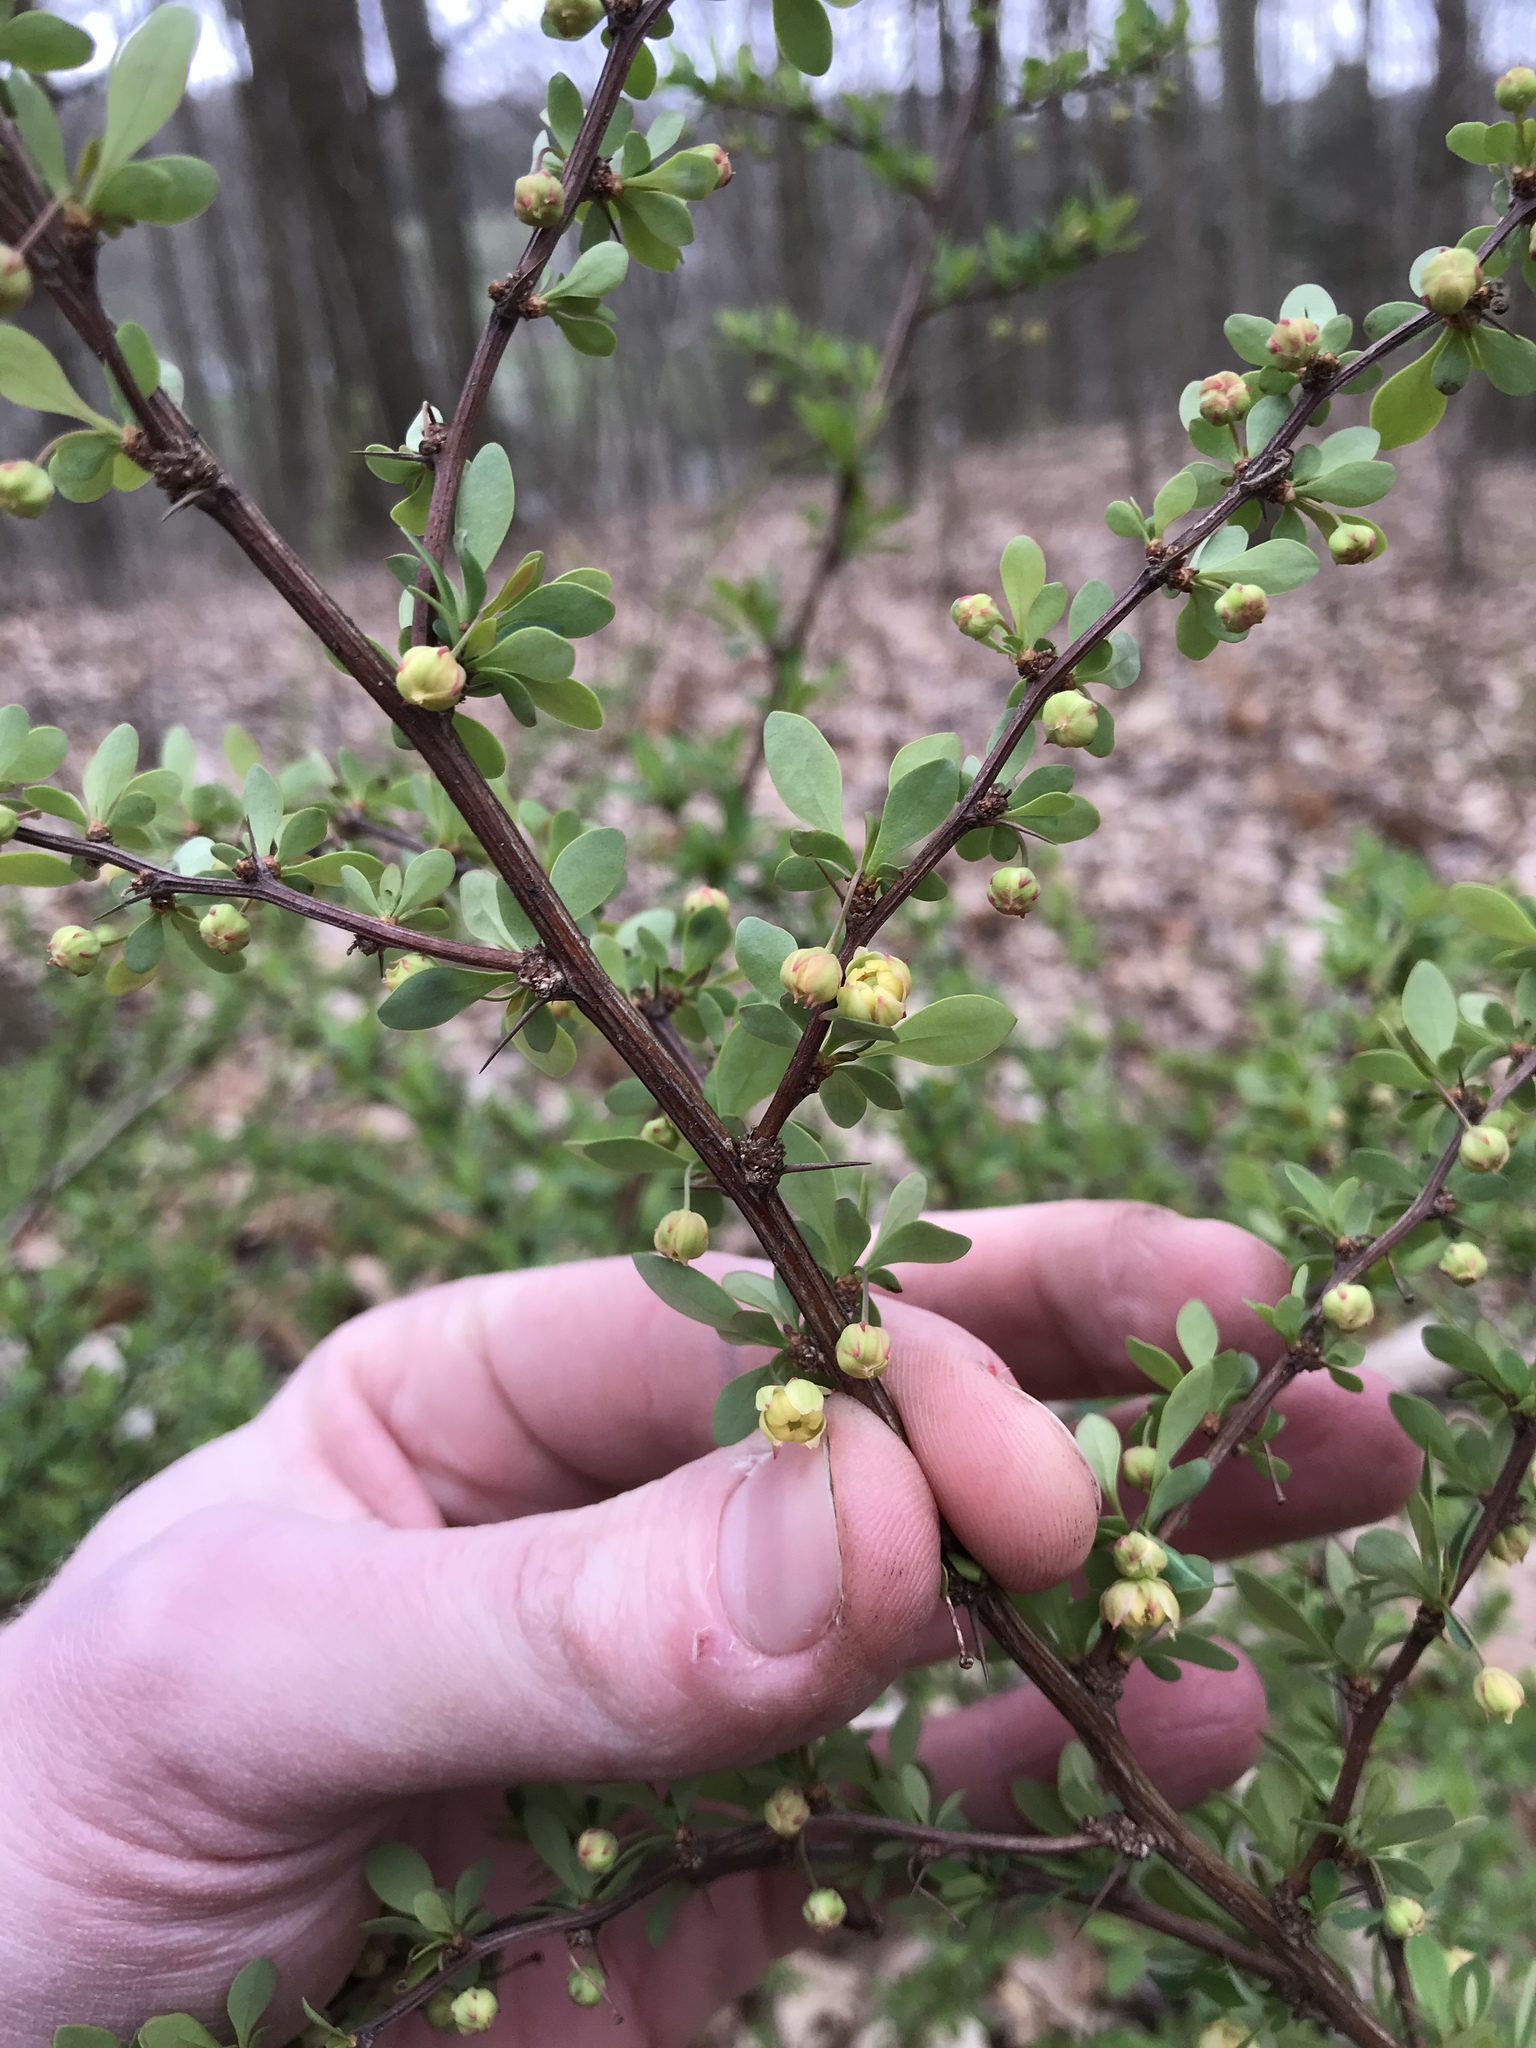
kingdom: Plantae
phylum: Tracheophyta
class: Magnoliopsida
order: Ranunculales
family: Berberidaceae
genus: Berberis
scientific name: Berberis thunbergii
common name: Japanese barberry
